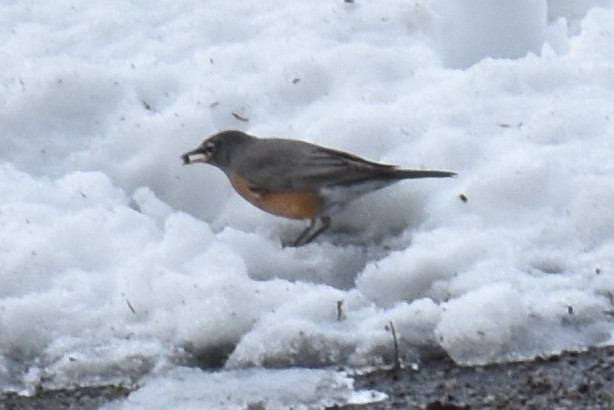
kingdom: Animalia
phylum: Chordata
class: Aves
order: Passeriformes
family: Turdidae
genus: Turdus
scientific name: Turdus migratorius
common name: American robin
